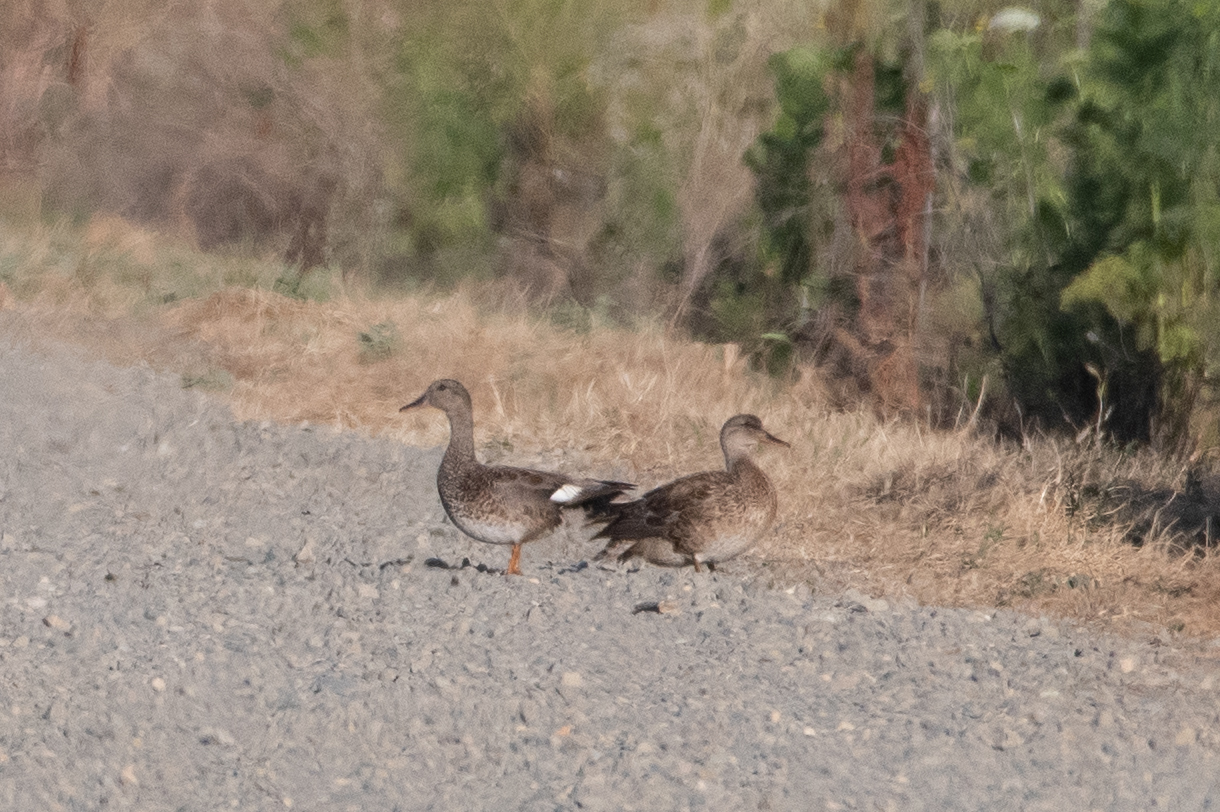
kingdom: Animalia
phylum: Chordata
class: Aves
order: Anseriformes
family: Anatidae
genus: Mareca
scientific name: Mareca strepera
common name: Gadwall
